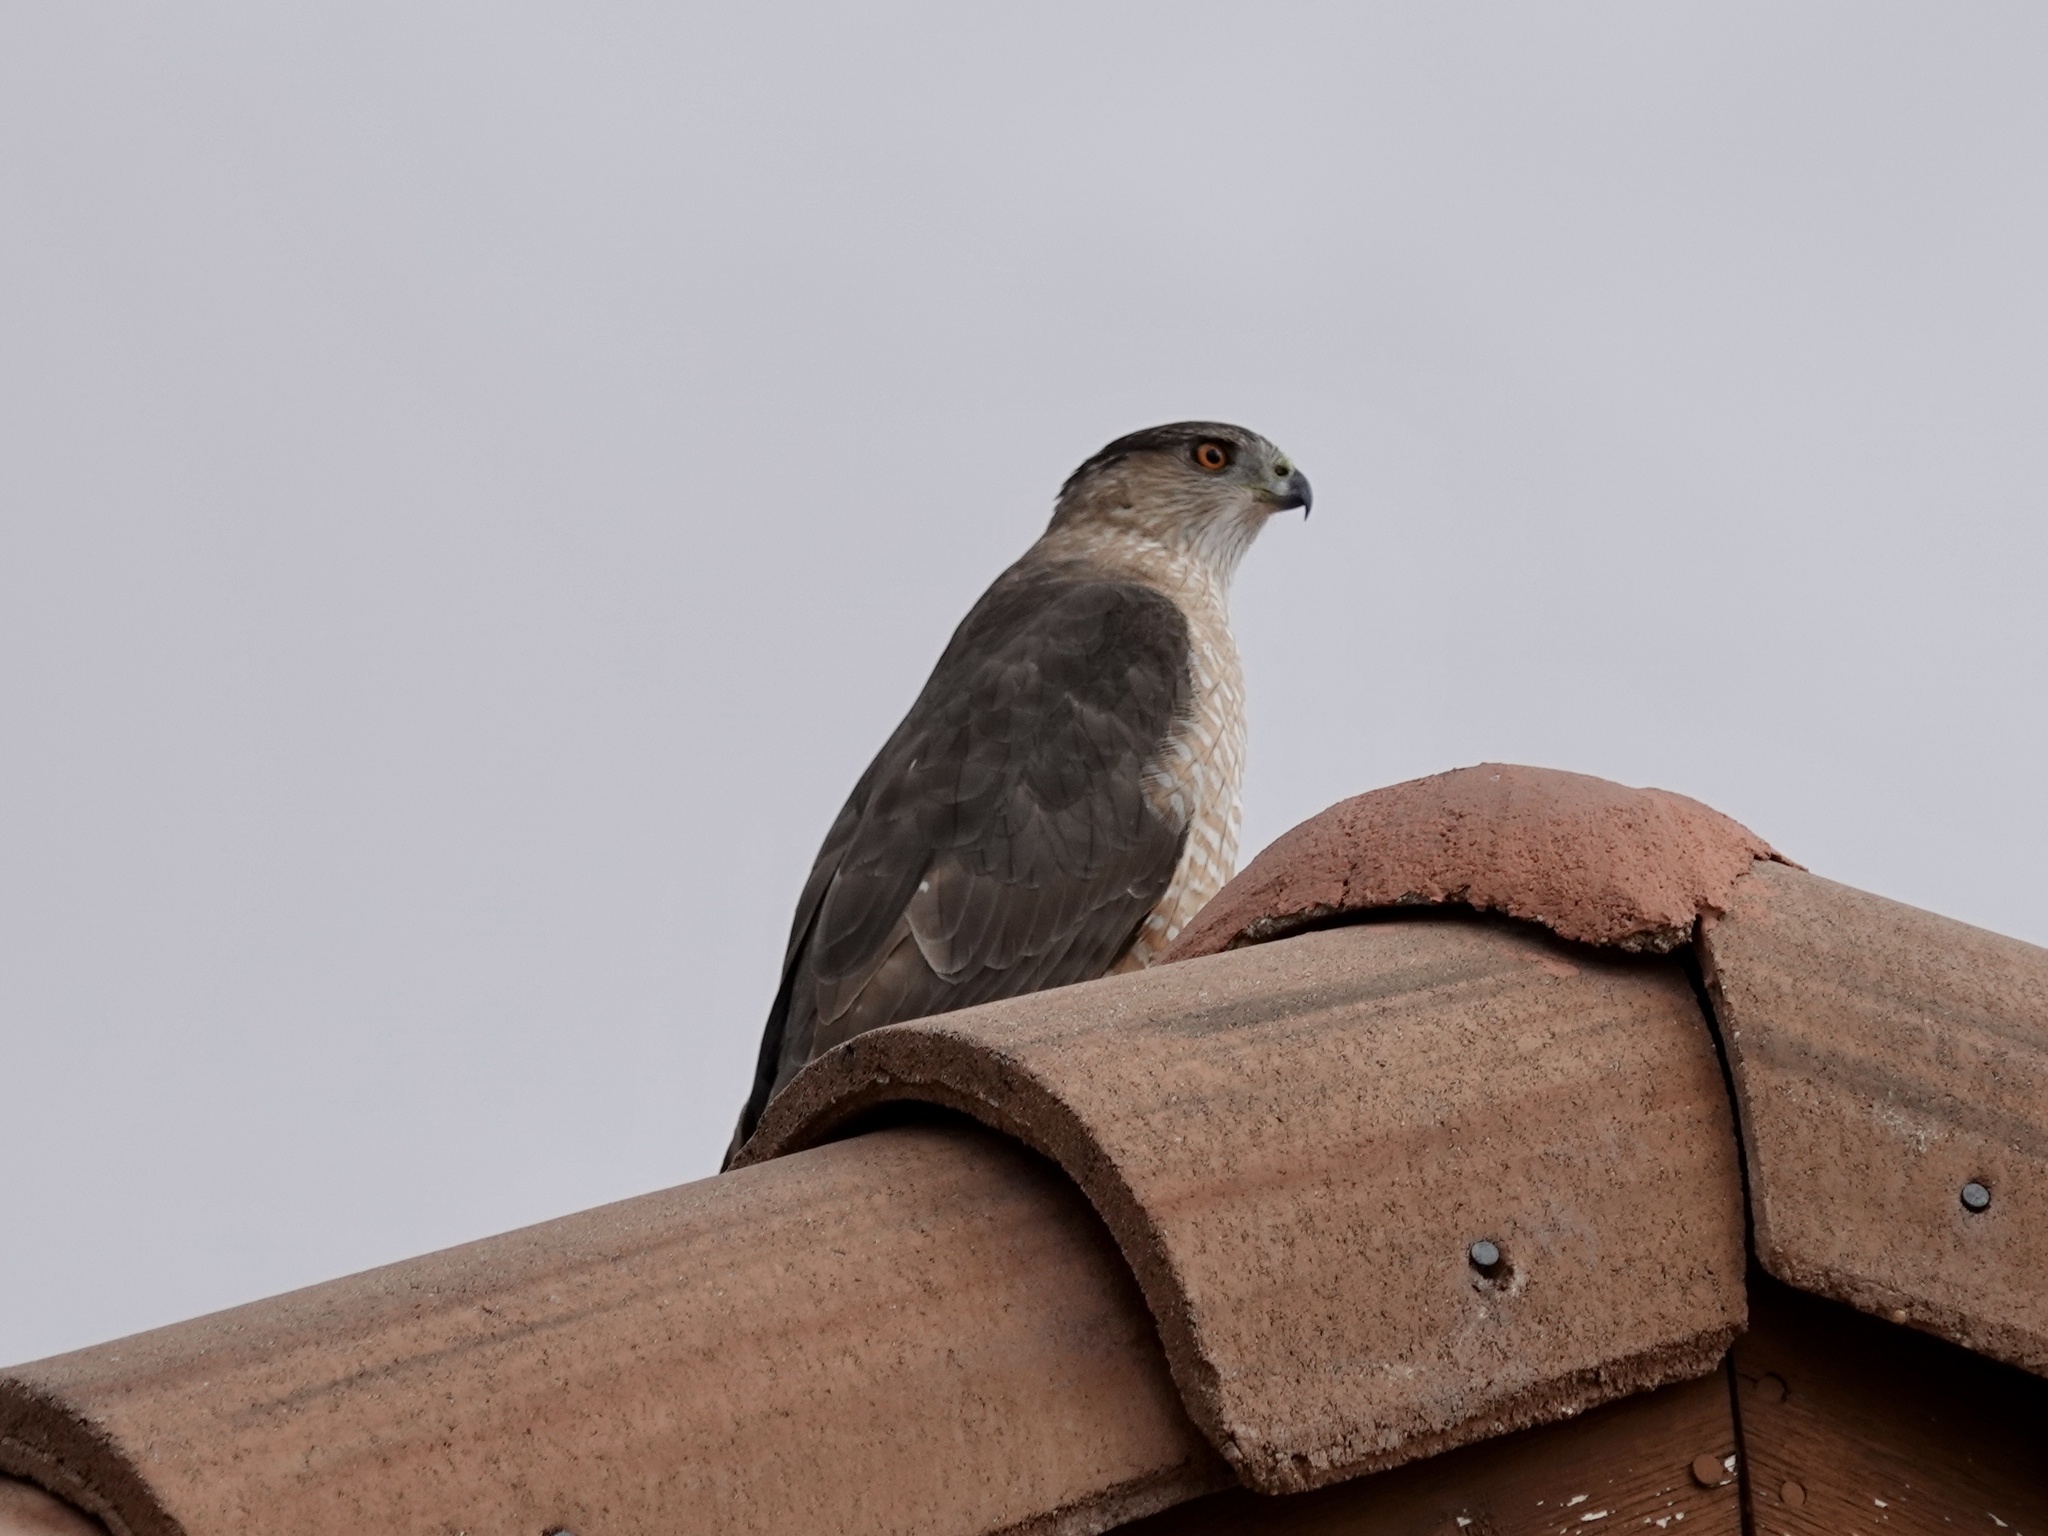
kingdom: Animalia
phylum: Chordata
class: Aves
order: Accipitriformes
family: Accipitridae
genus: Accipiter
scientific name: Accipiter cooperii
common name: Cooper's hawk
